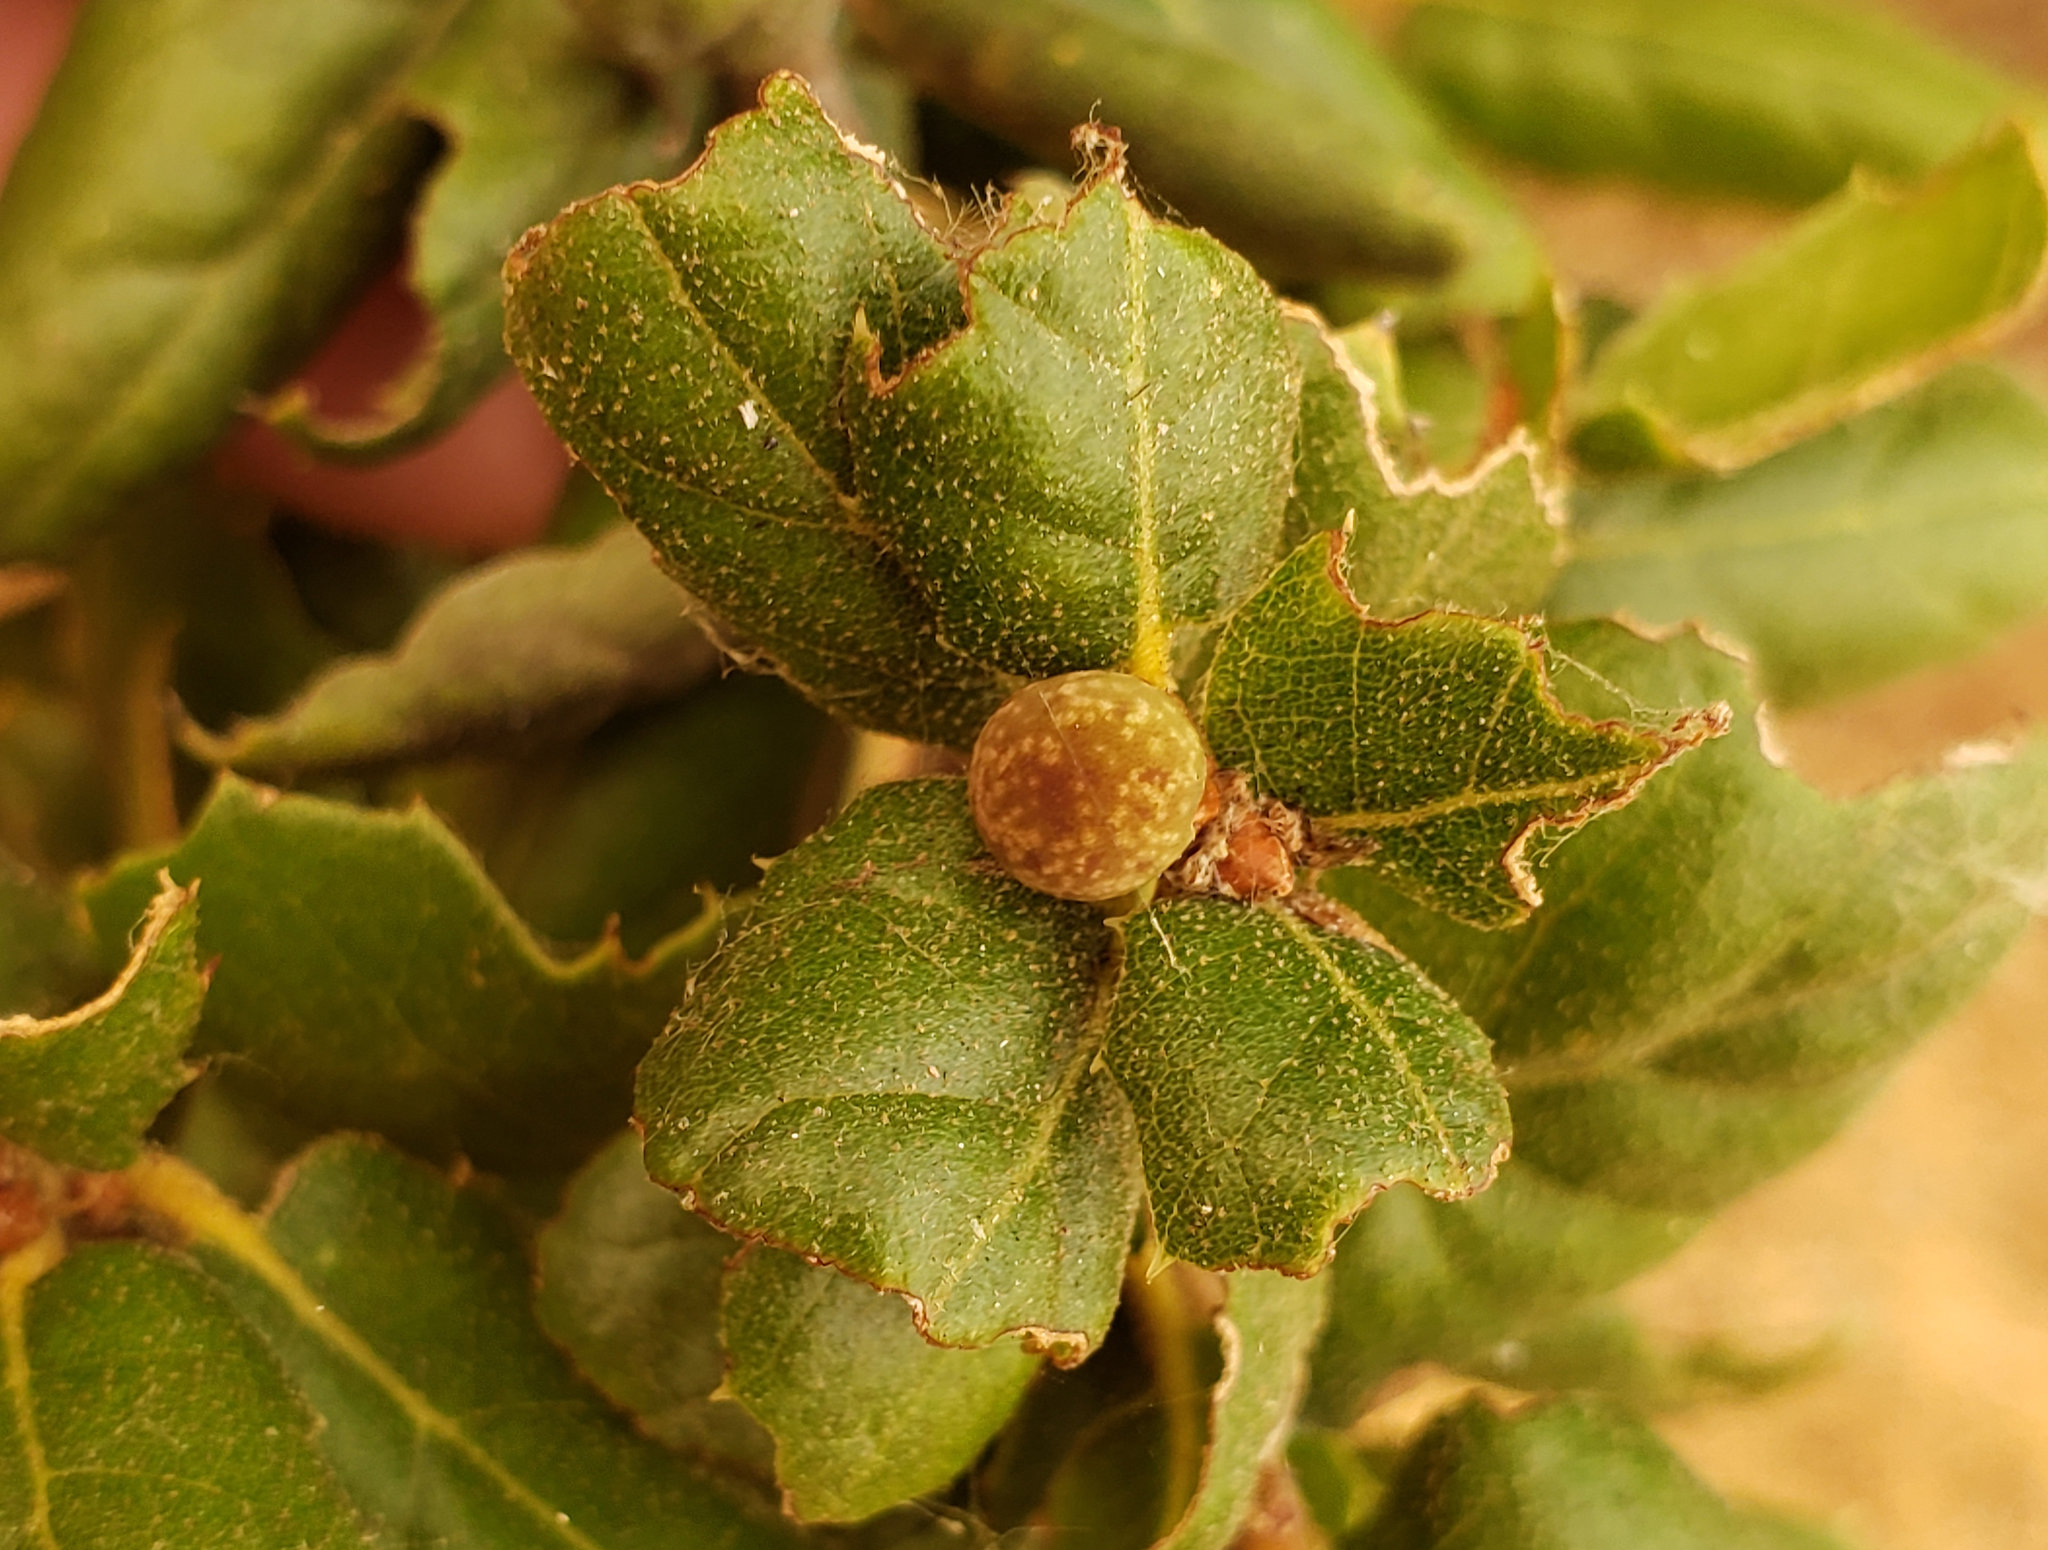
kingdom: Animalia
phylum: Arthropoda
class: Insecta
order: Hymenoptera
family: Cynipidae
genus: Callirhytis
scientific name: Callirhytis
